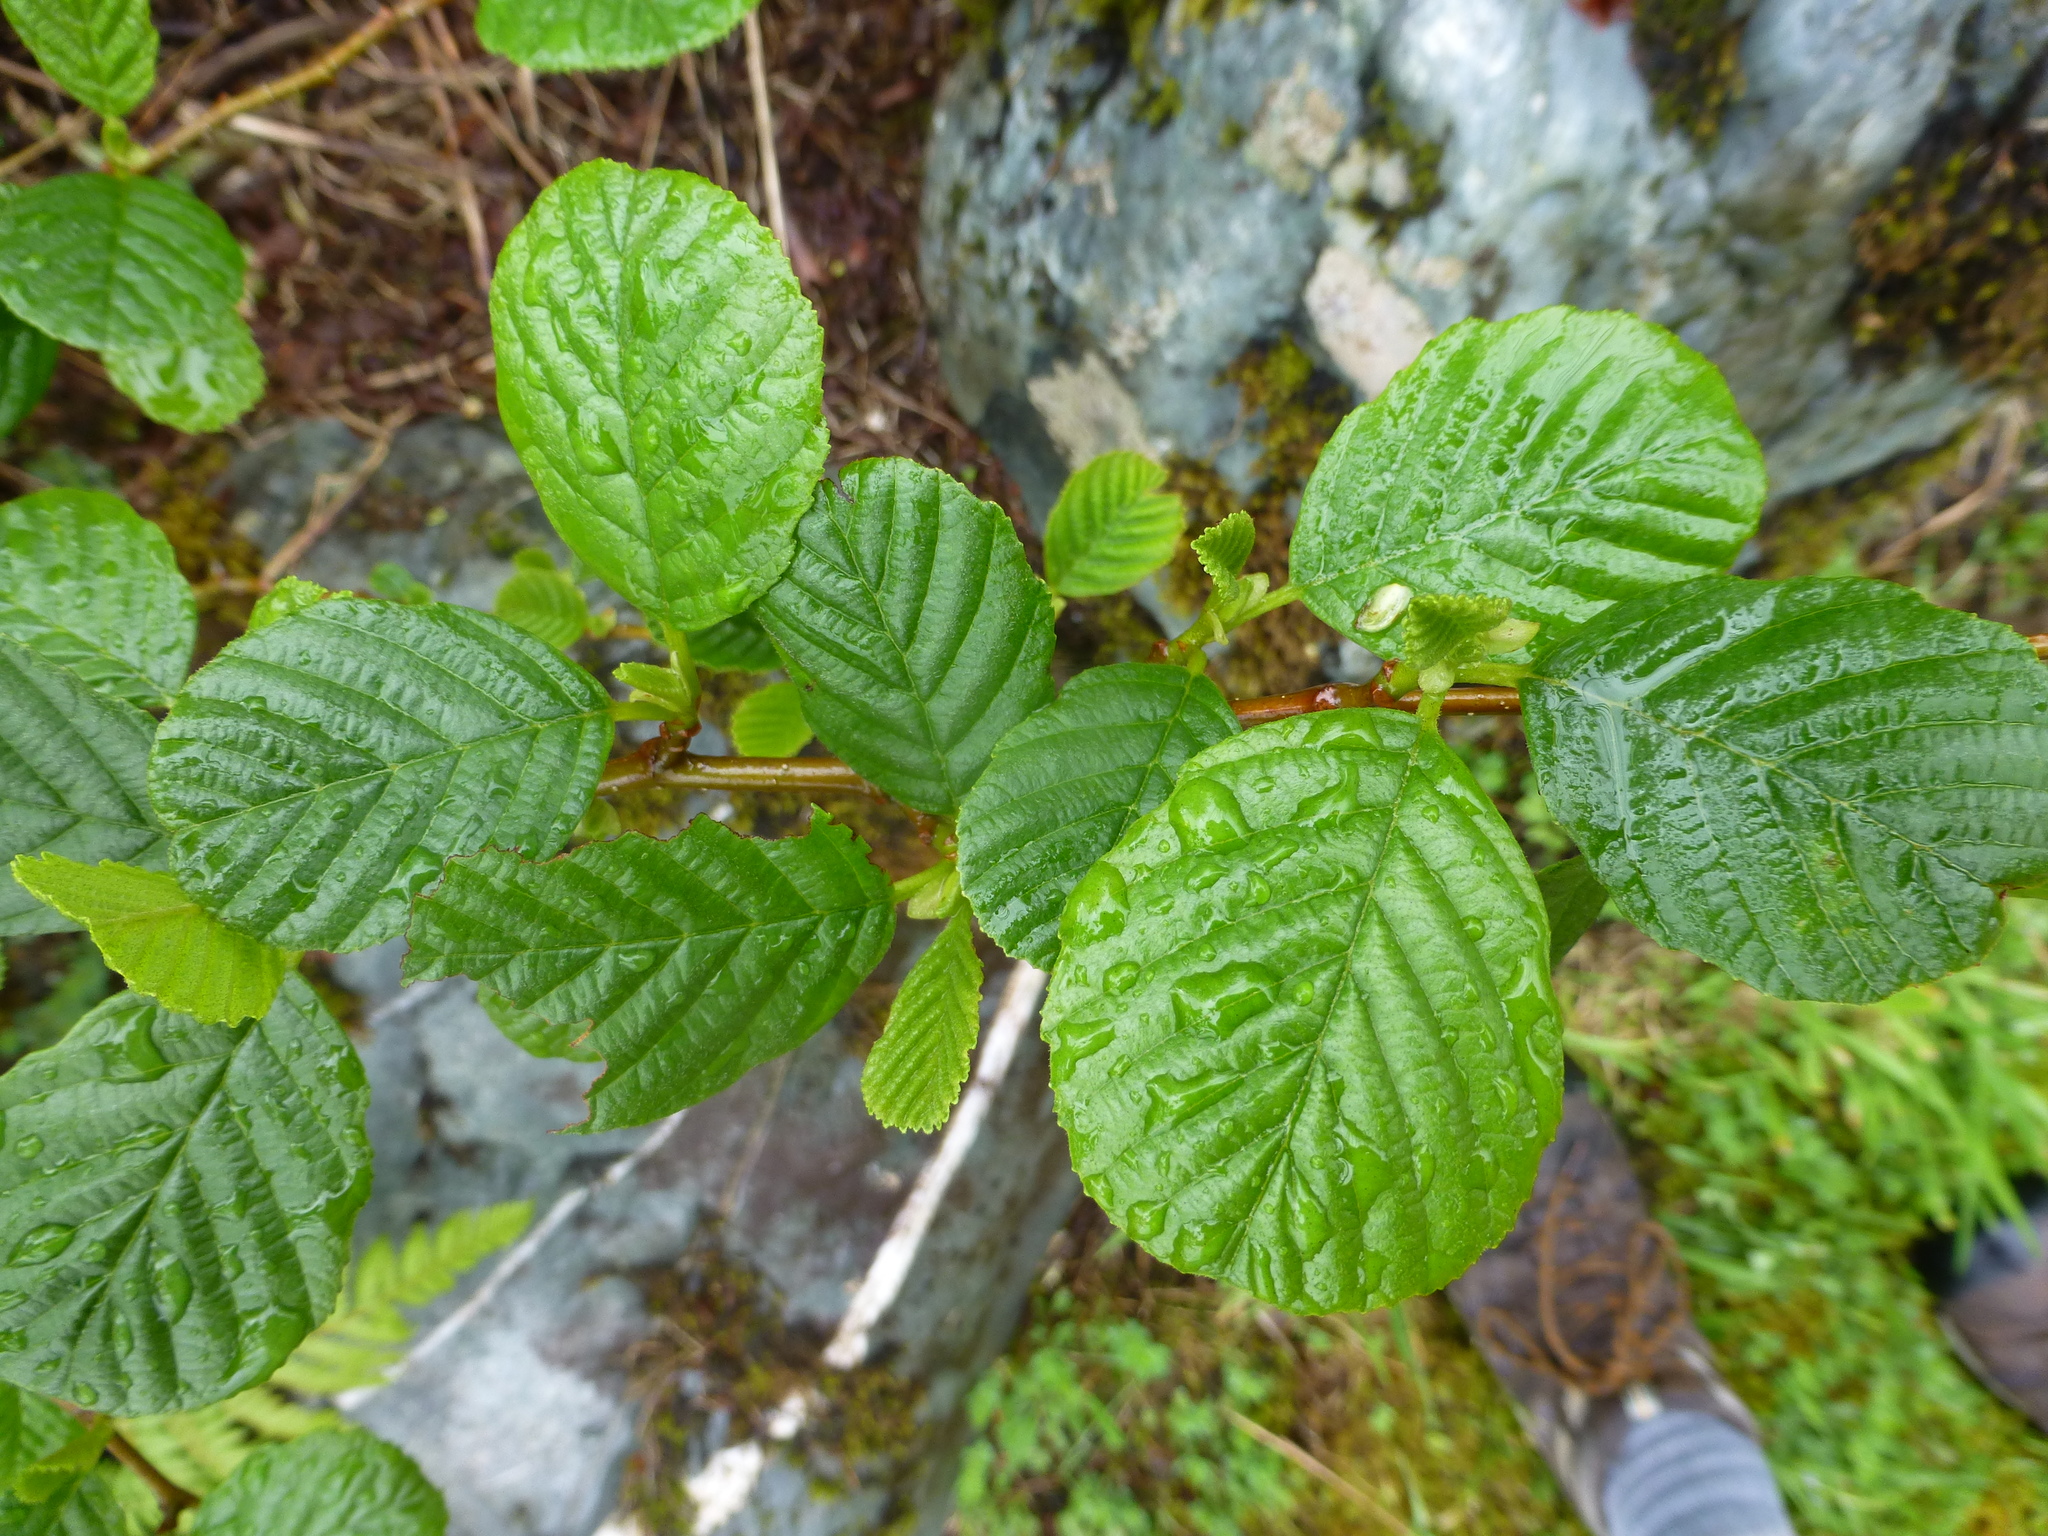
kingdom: Plantae
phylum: Tracheophyta
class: Magnoliopsida
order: Fagales
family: Betulaceae
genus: Alnus
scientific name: Alnus glutinosa
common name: Black alder
